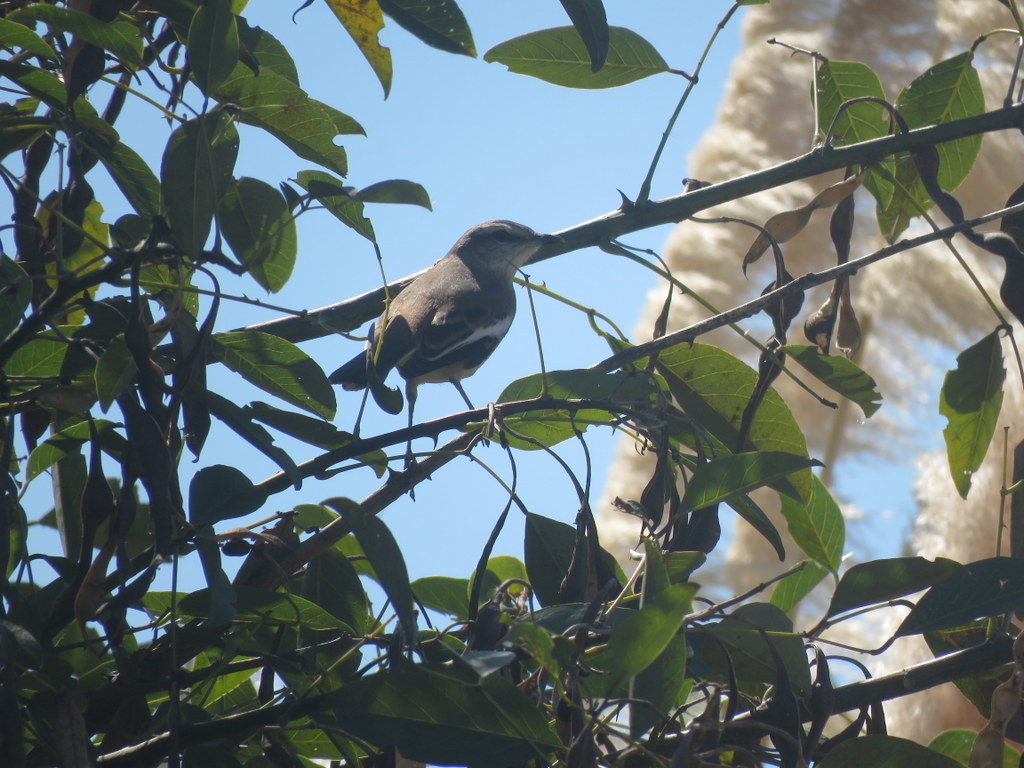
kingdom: Animalia
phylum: Chordata
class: Aves
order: Passeriformes
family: Mimidae
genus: Mimus
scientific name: Mimus triurus
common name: White-banded mockingbird
